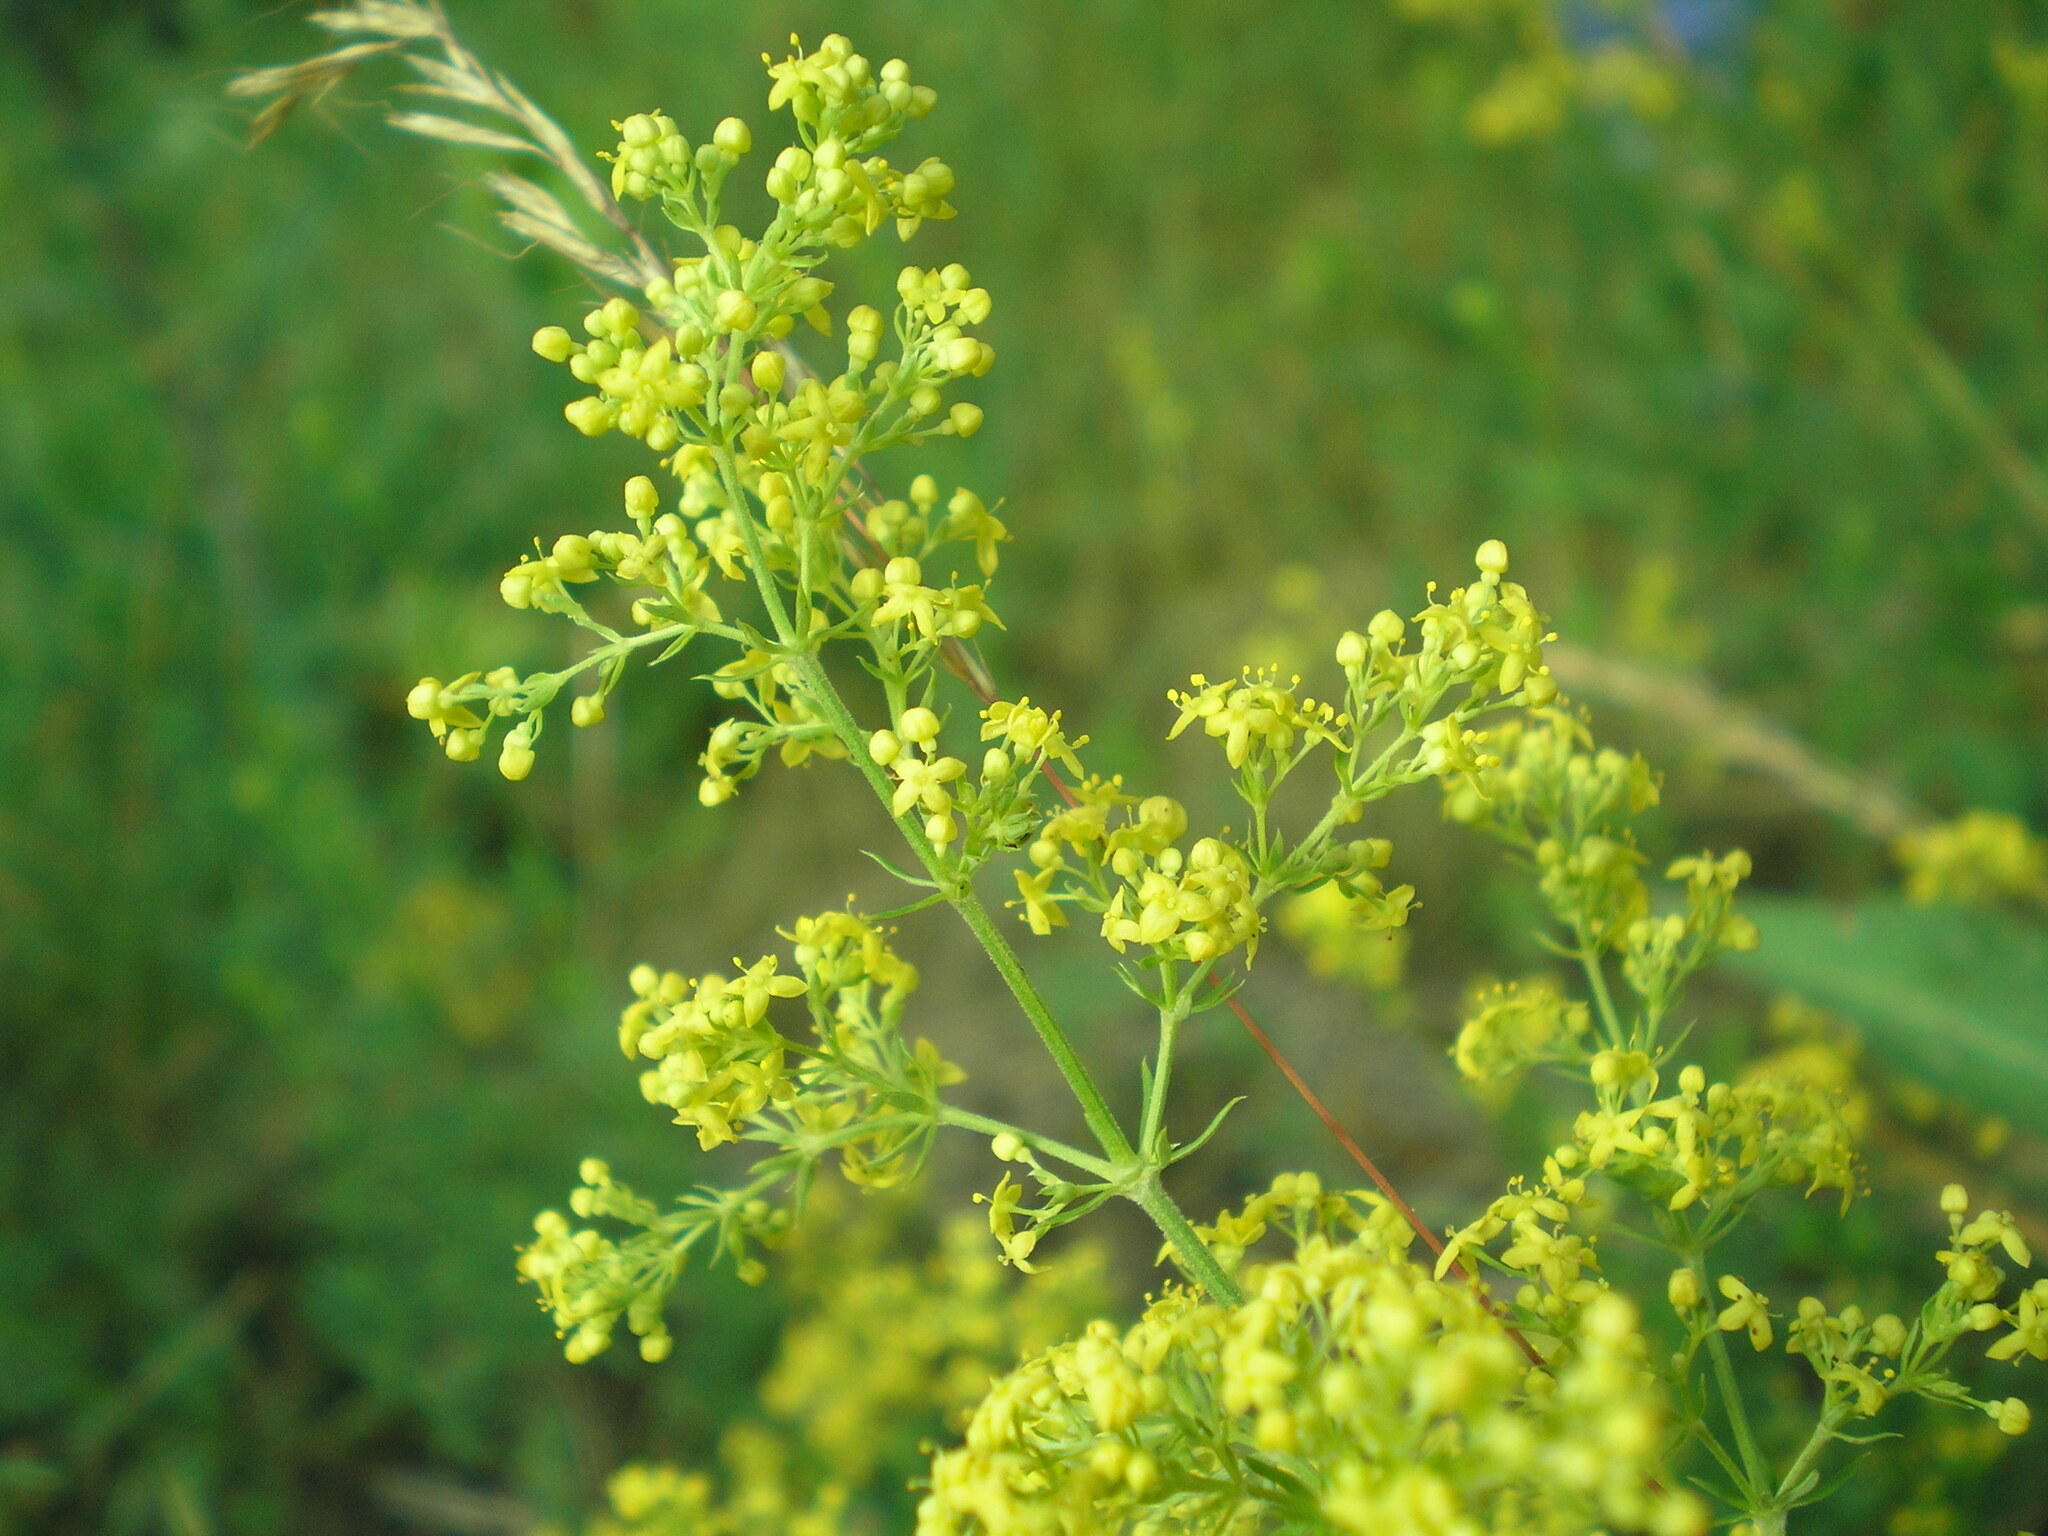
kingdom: Plantae
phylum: Tracheophyta
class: Magnoliopsida
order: Gentianales
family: Rubiaceae
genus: Galium
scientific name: Galium verum
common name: Lady's bedstraw
